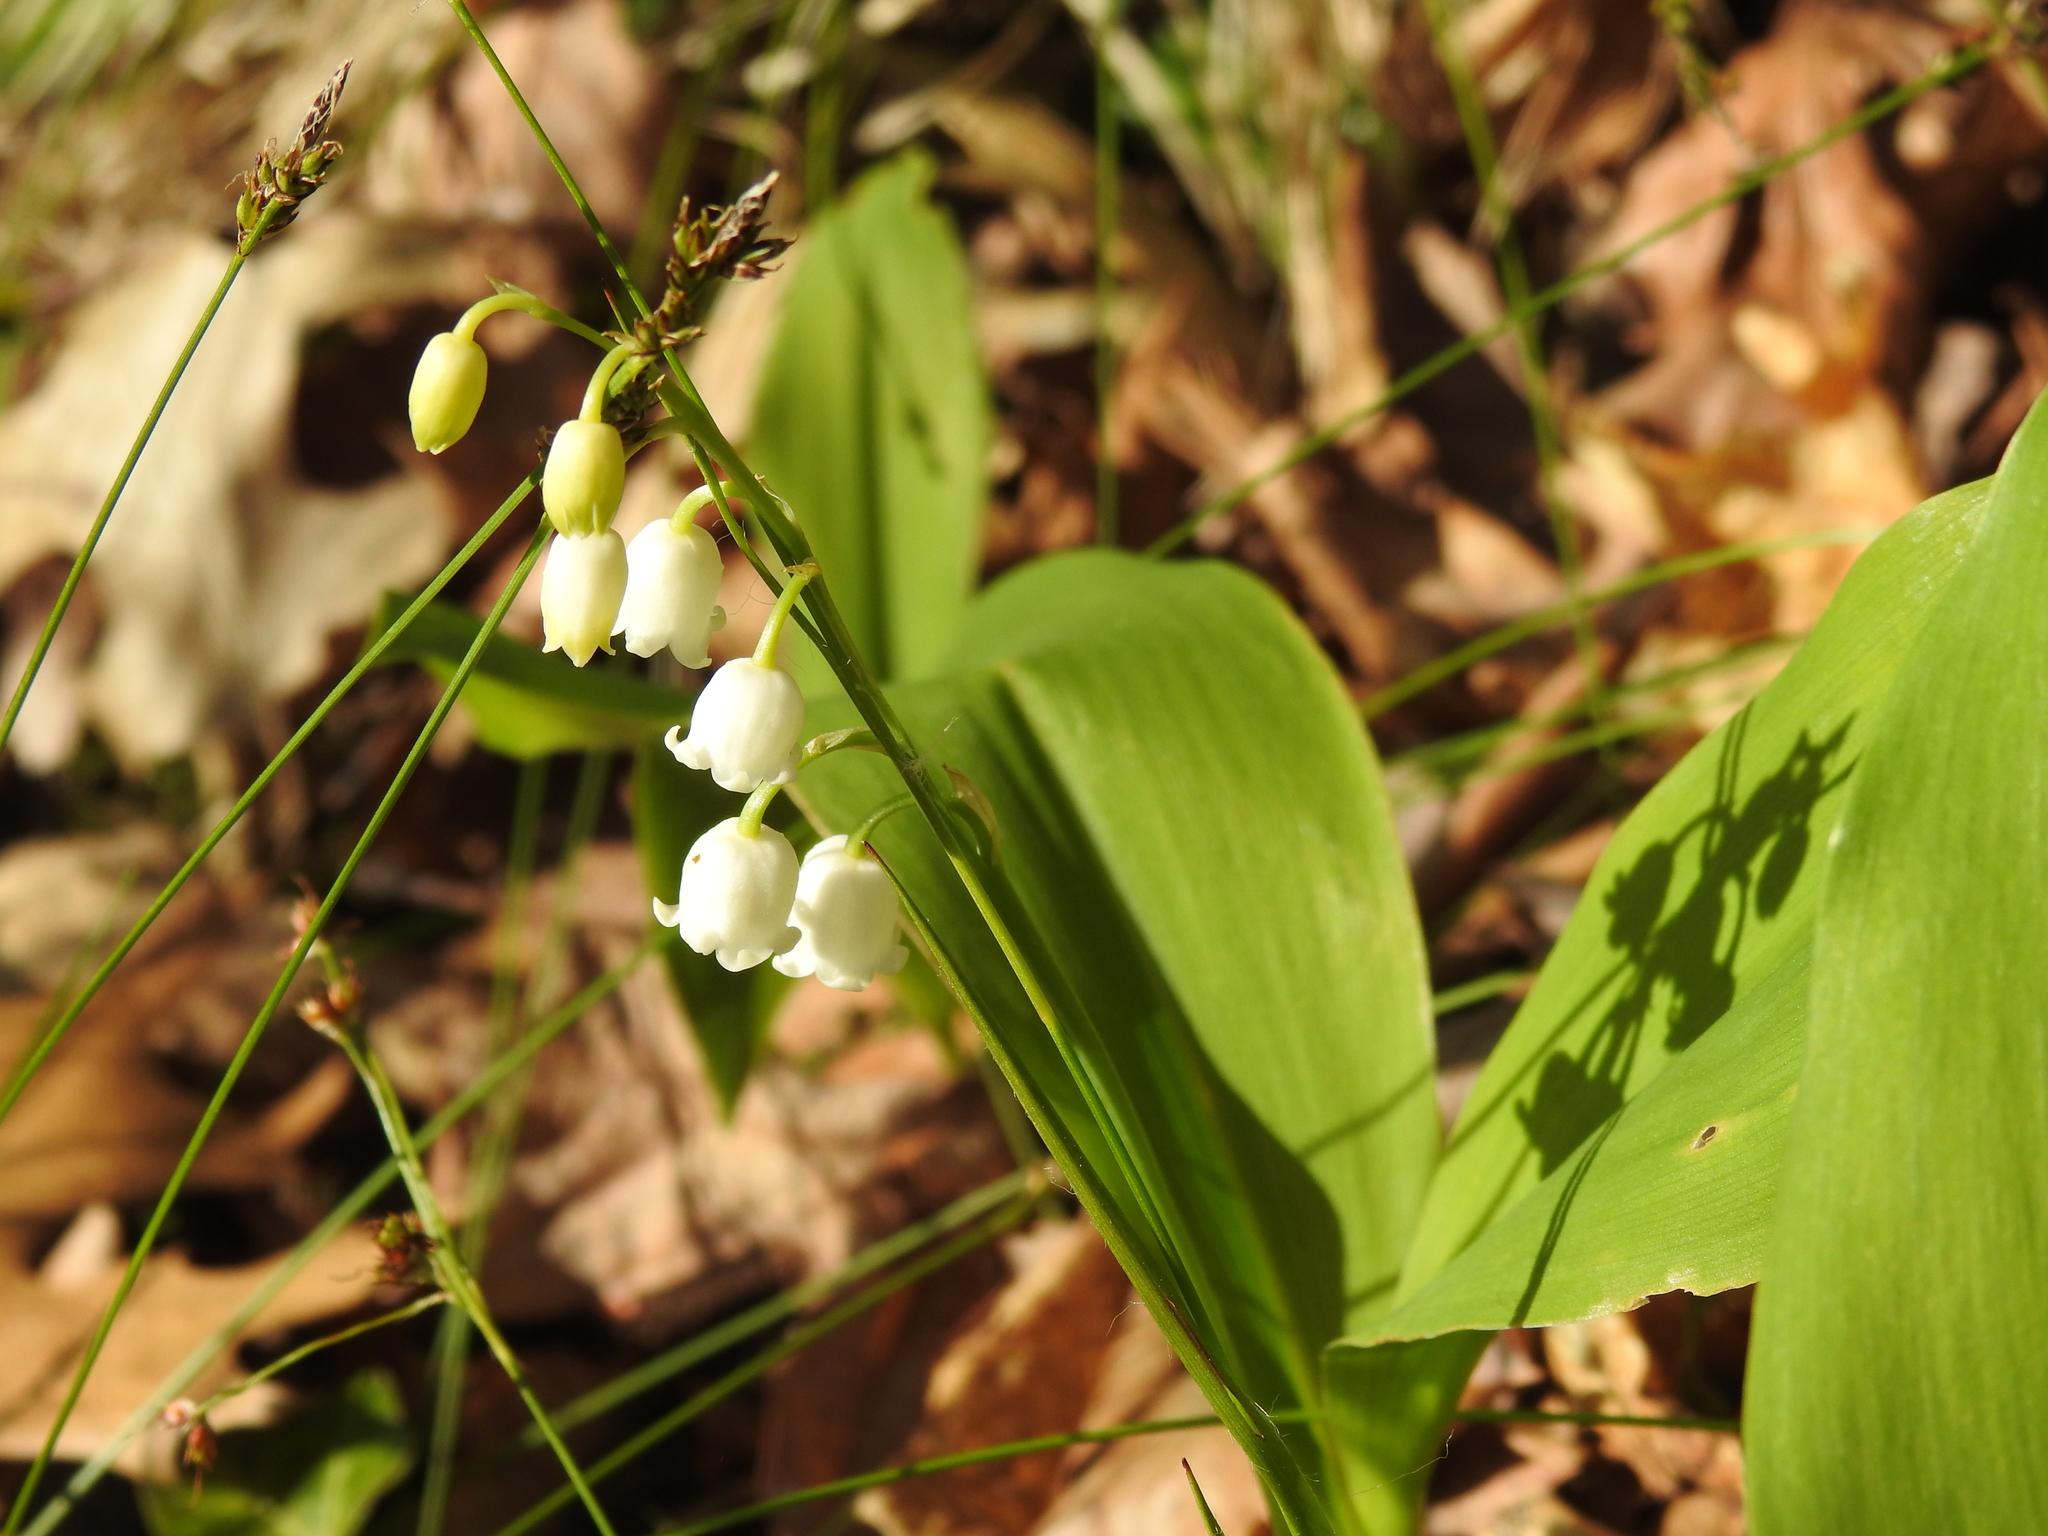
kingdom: Plantae
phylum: Tracheophyta
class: Liliopsida
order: Asparagales
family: Asparagaceae
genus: Convallaria
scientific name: Convallaria majalis
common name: Lily-of-the-valley
